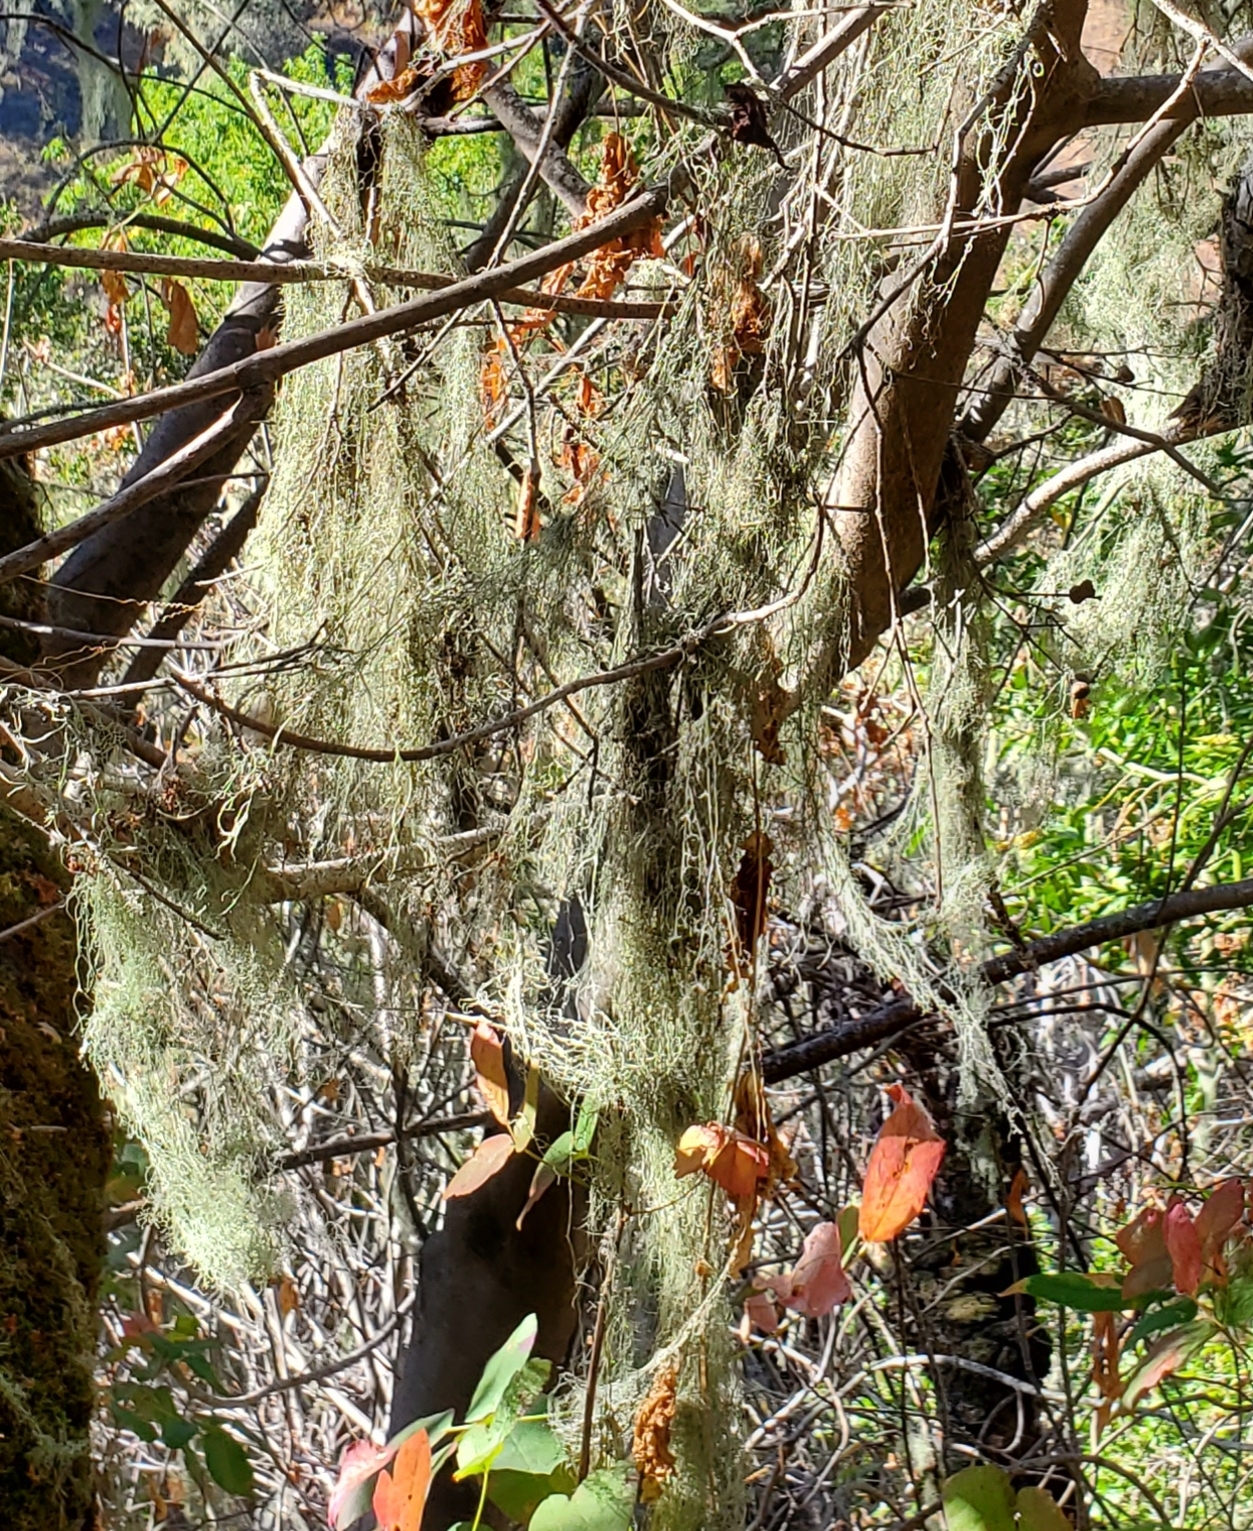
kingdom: Fungi
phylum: Ascomycota
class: Lecanoromycetes
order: Lecanorales
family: Ramalinaceae
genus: Ramalina
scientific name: Ramalina menziesii
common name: Lace lichen
